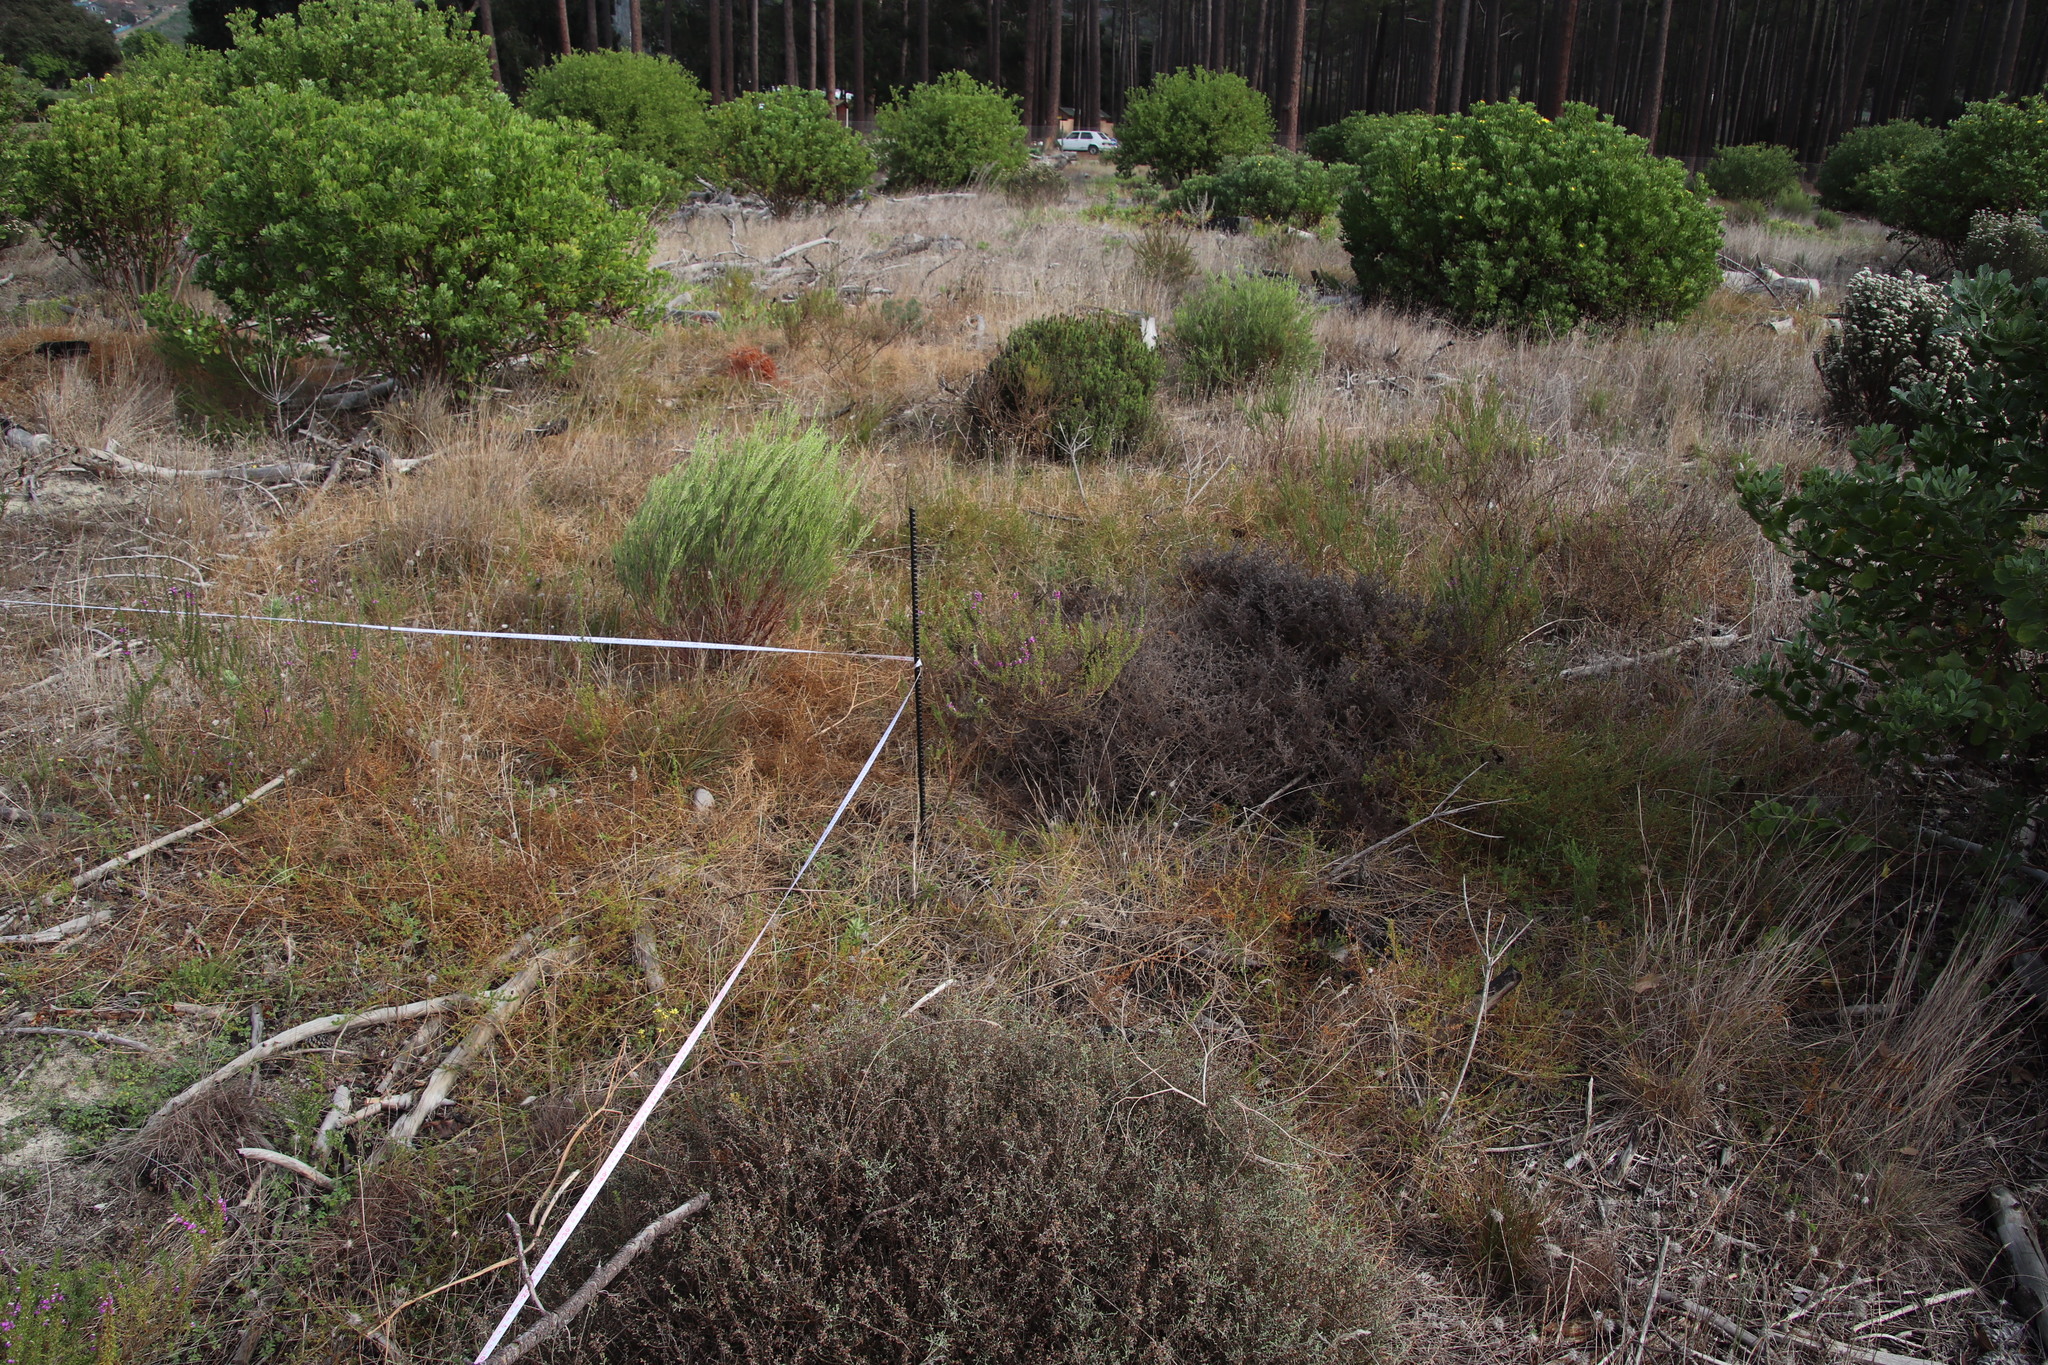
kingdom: Plantae
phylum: Tracheophyta
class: Magnoliopsida
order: Fabales
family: Fabaceae
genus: Aspalathus
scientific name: Aspalathus retroflexa
